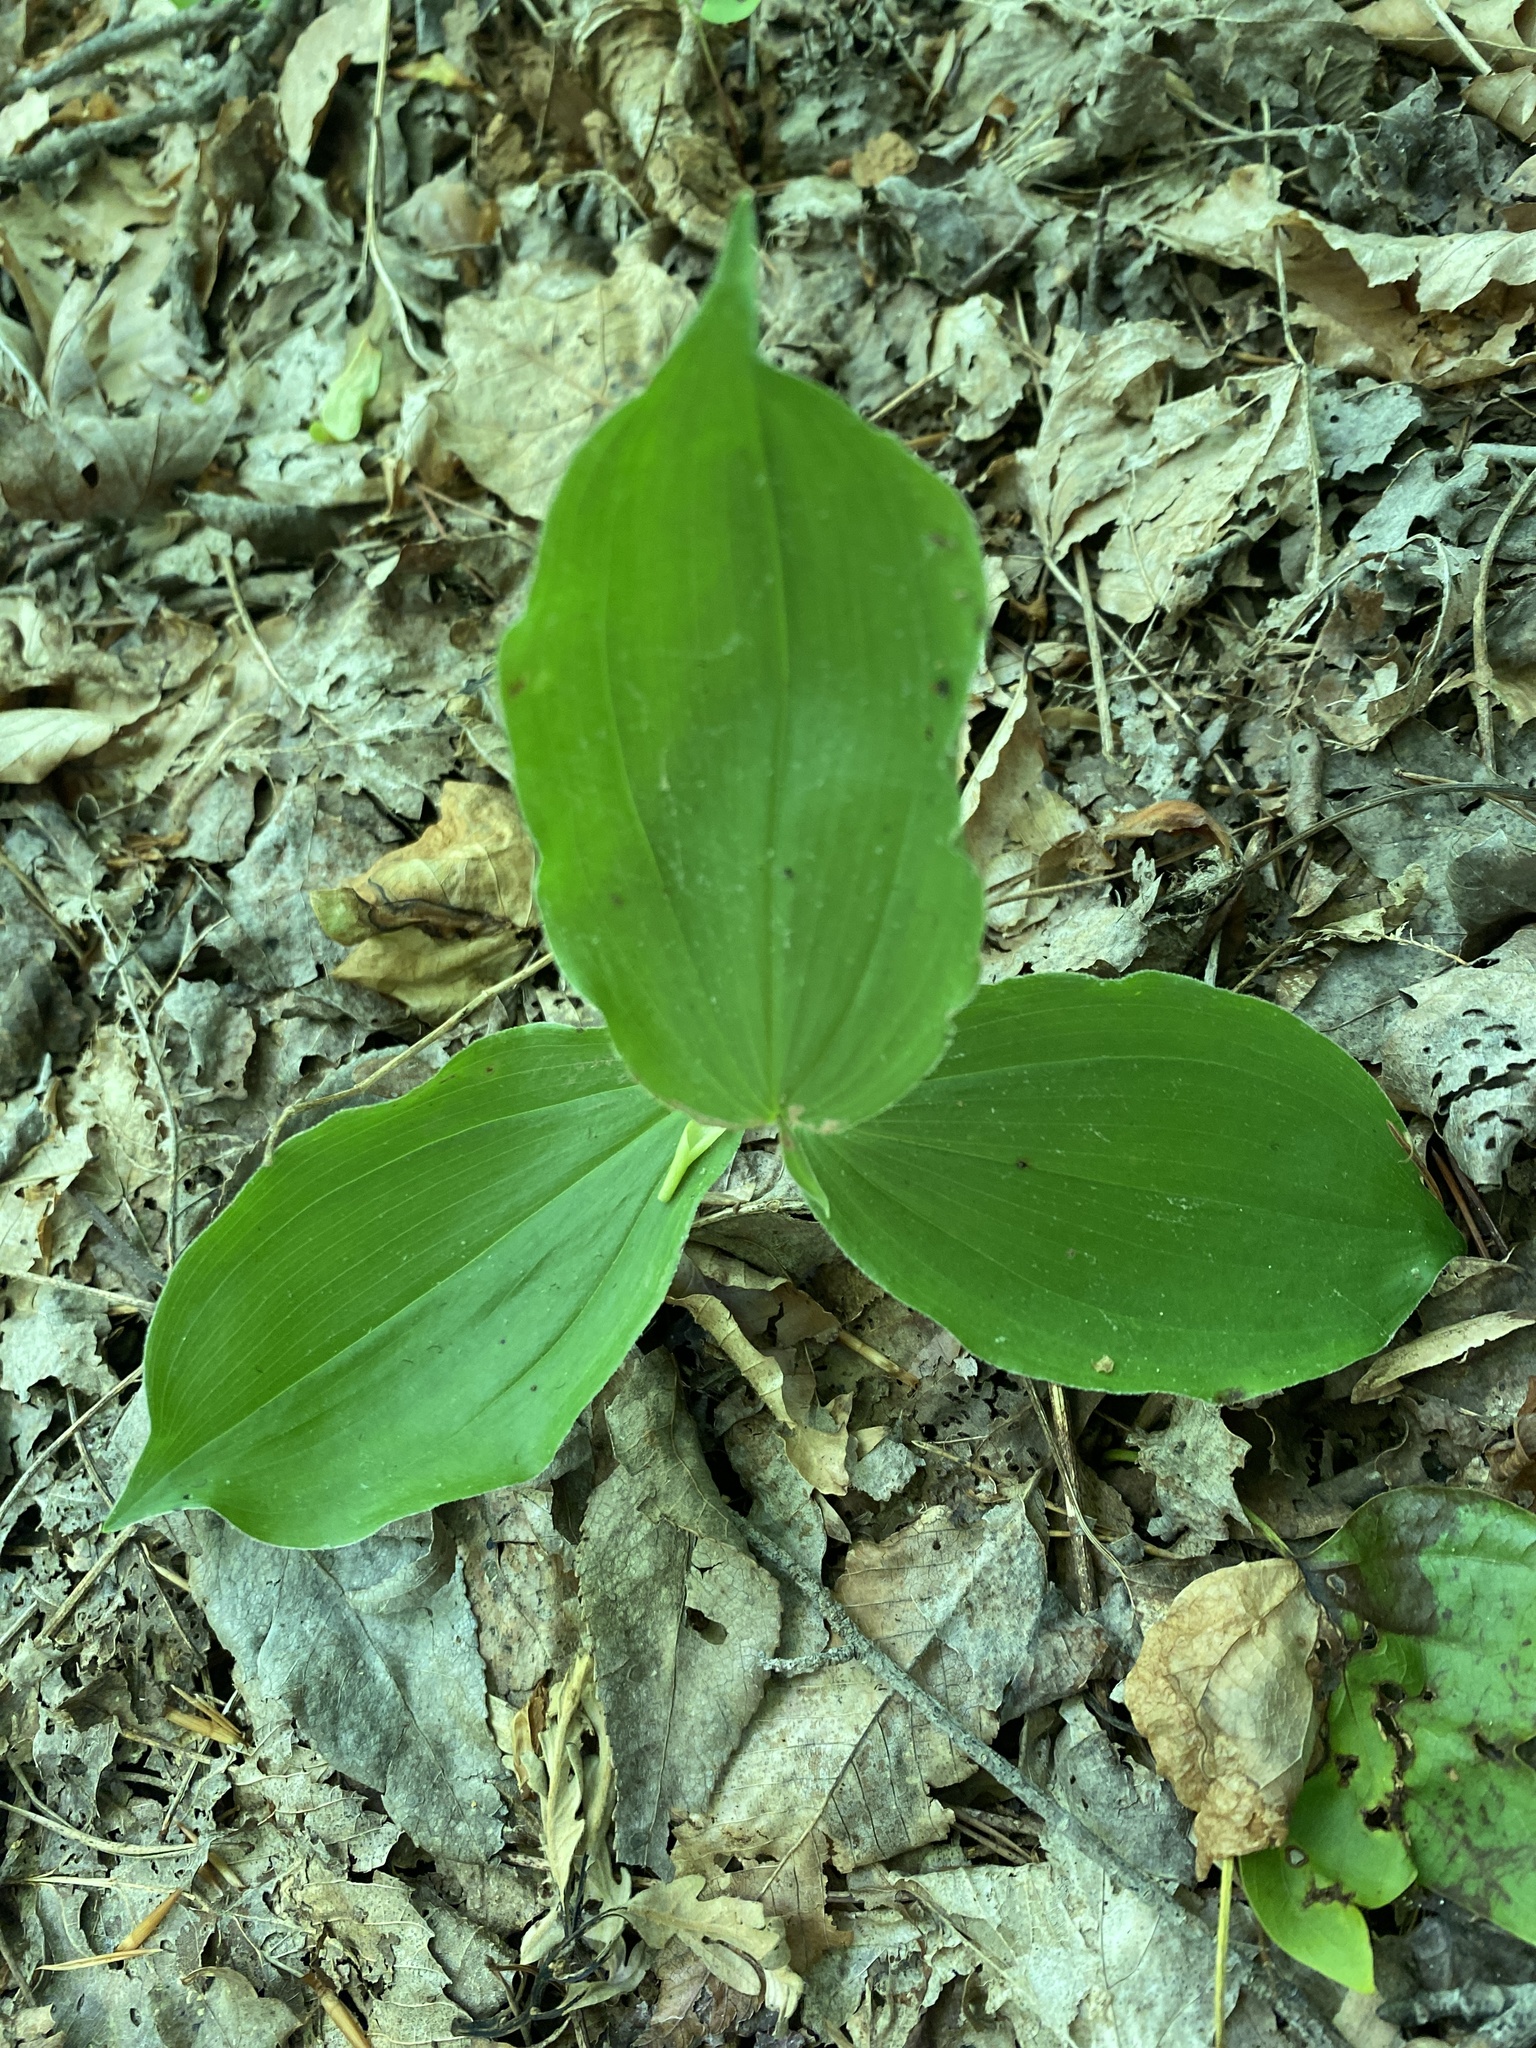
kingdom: Plantae
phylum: Tracheophyta
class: Liliopsida
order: Asparagales
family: Asparagaceae
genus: Maianthemum
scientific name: Maianthemum racemosum
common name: False spikenard
